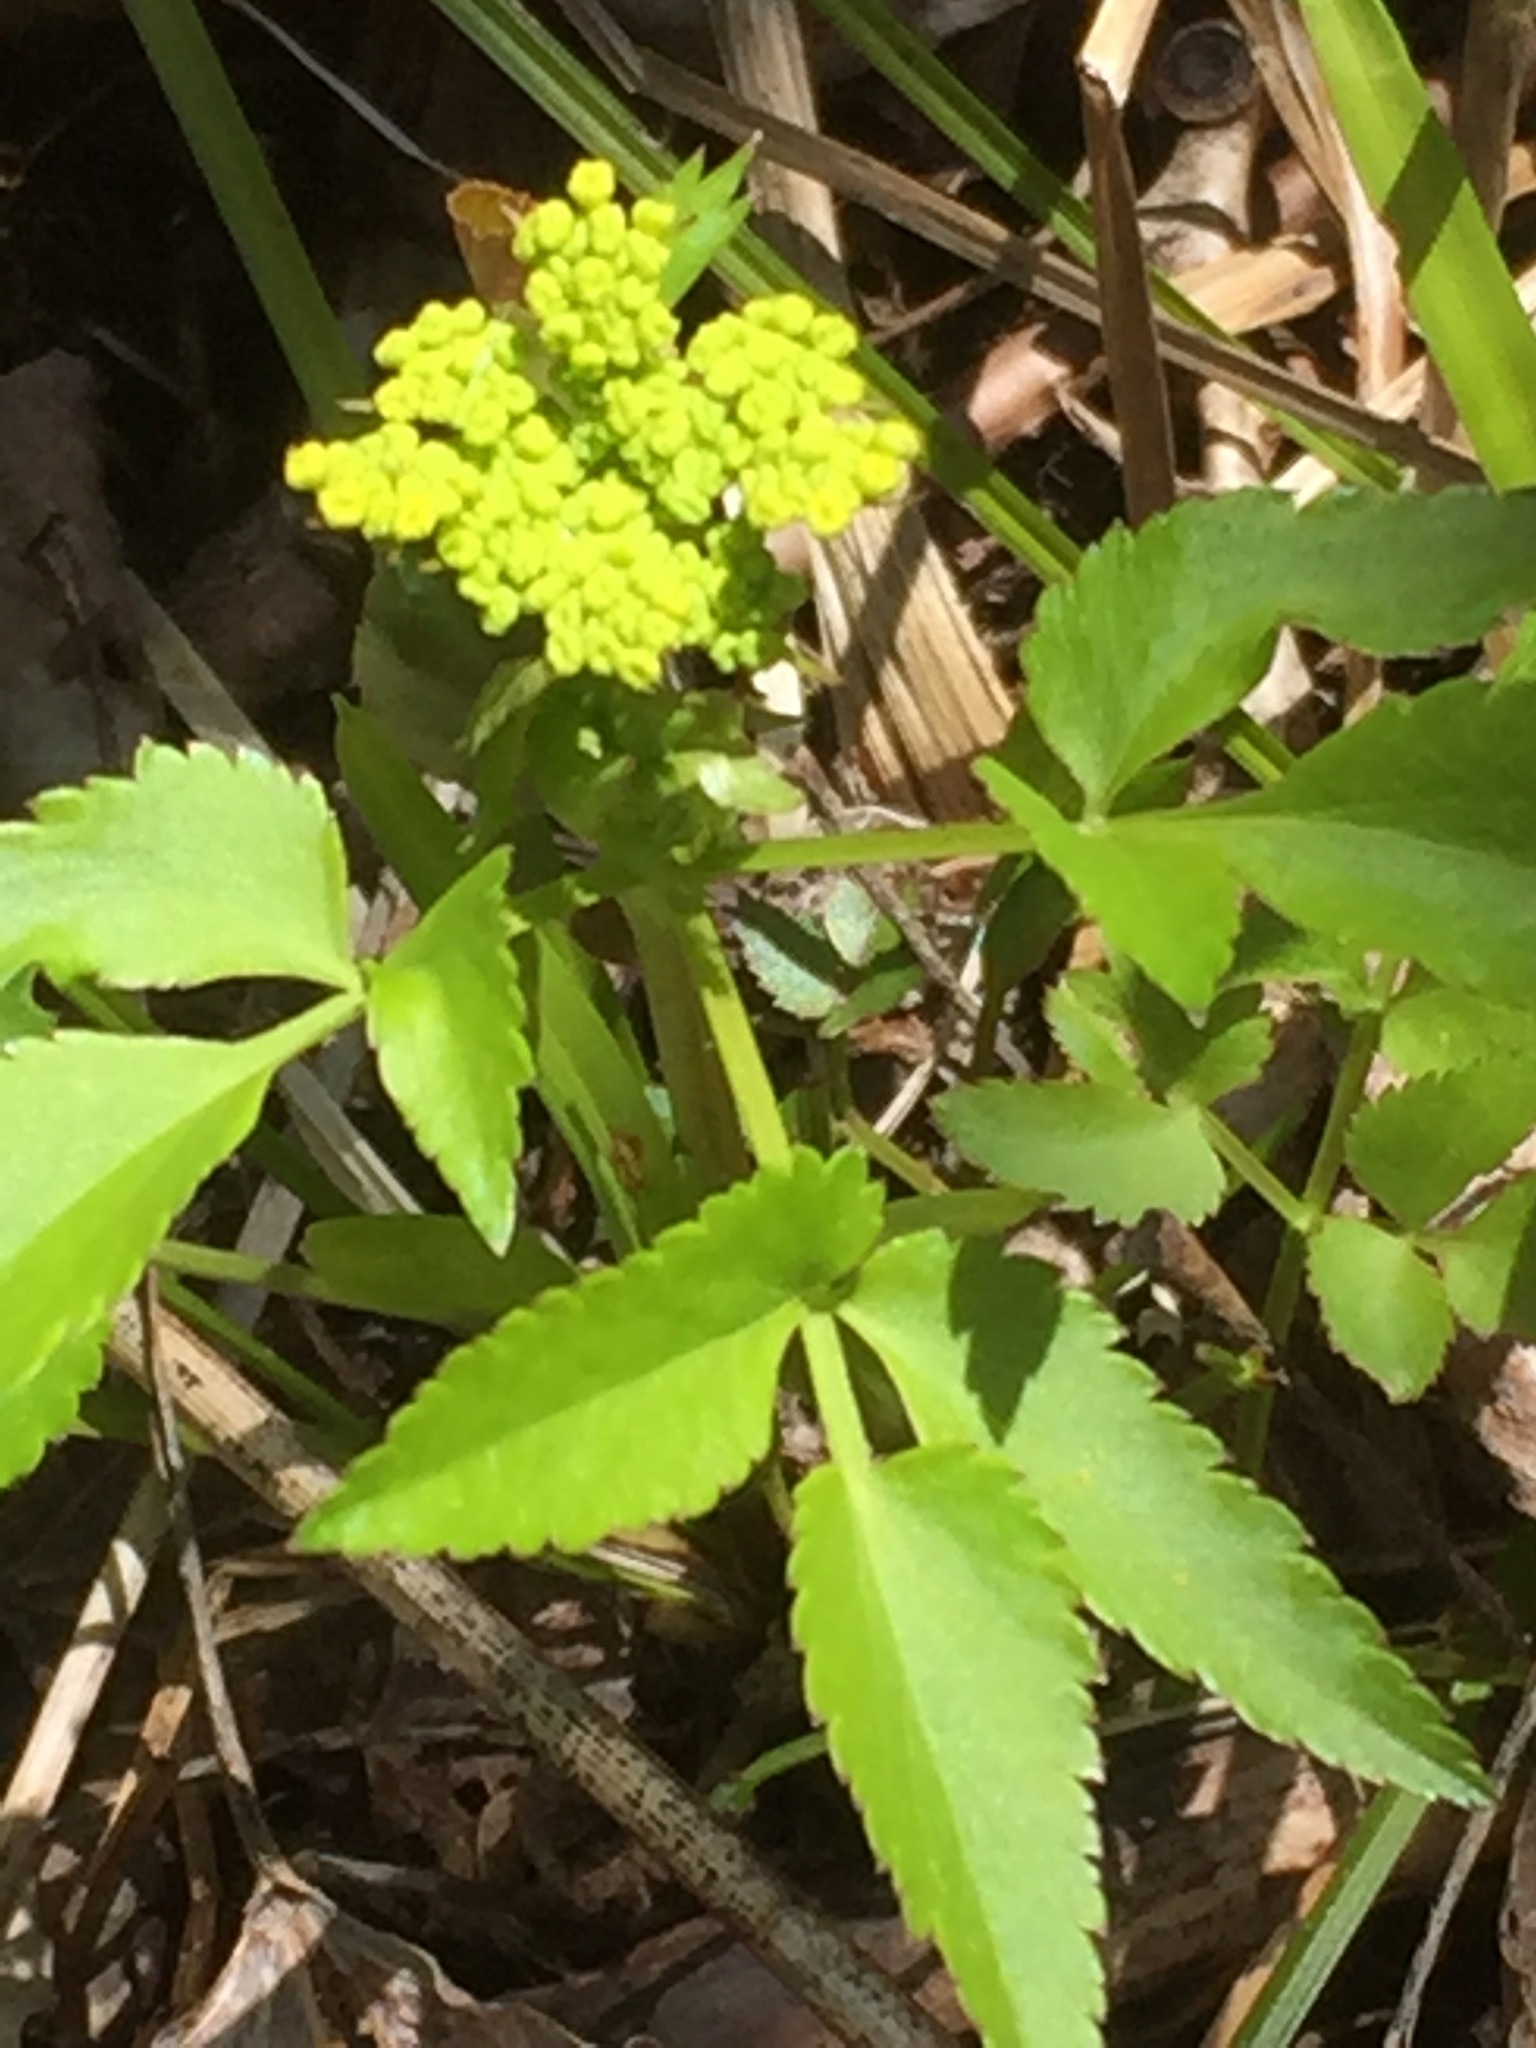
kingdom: Plantae
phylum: Tracheophyta
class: Magnoliopsida
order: Apiales
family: Apiaceae
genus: Zizia
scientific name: Zizia aurea
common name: Golden alexanders
